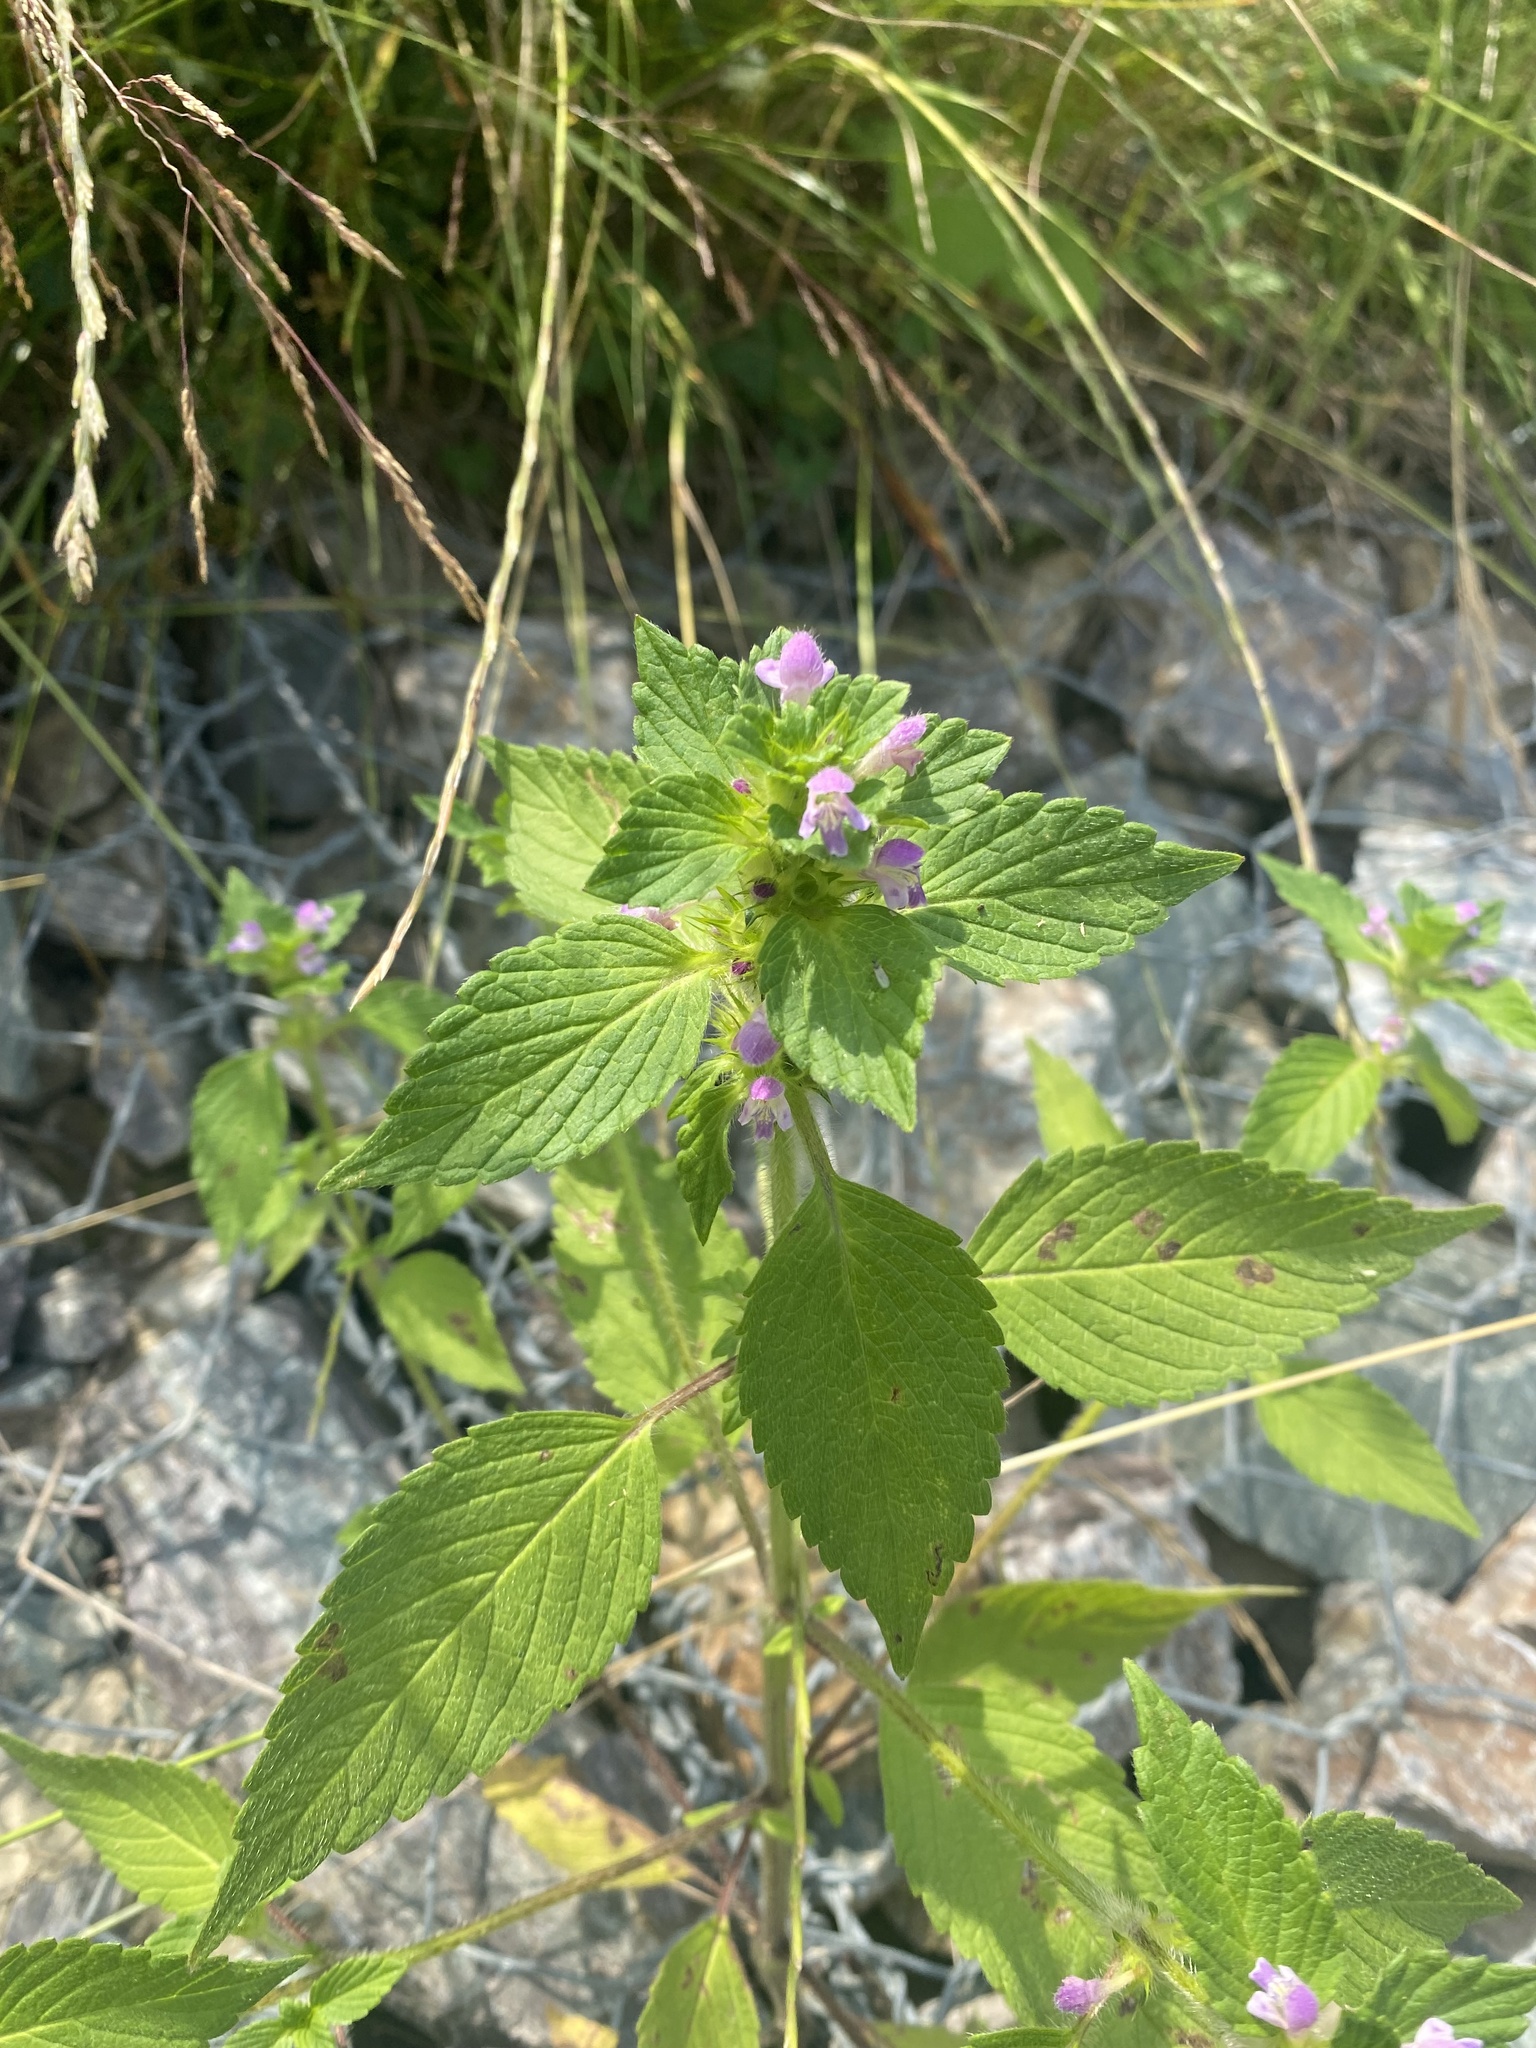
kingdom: Plantae
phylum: Tracheophyta
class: Magnoliopsida
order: Lamiales
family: Lamiaceae
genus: Galeopsis
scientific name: Galeopsis bifida
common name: Bifid hemp-nettle
